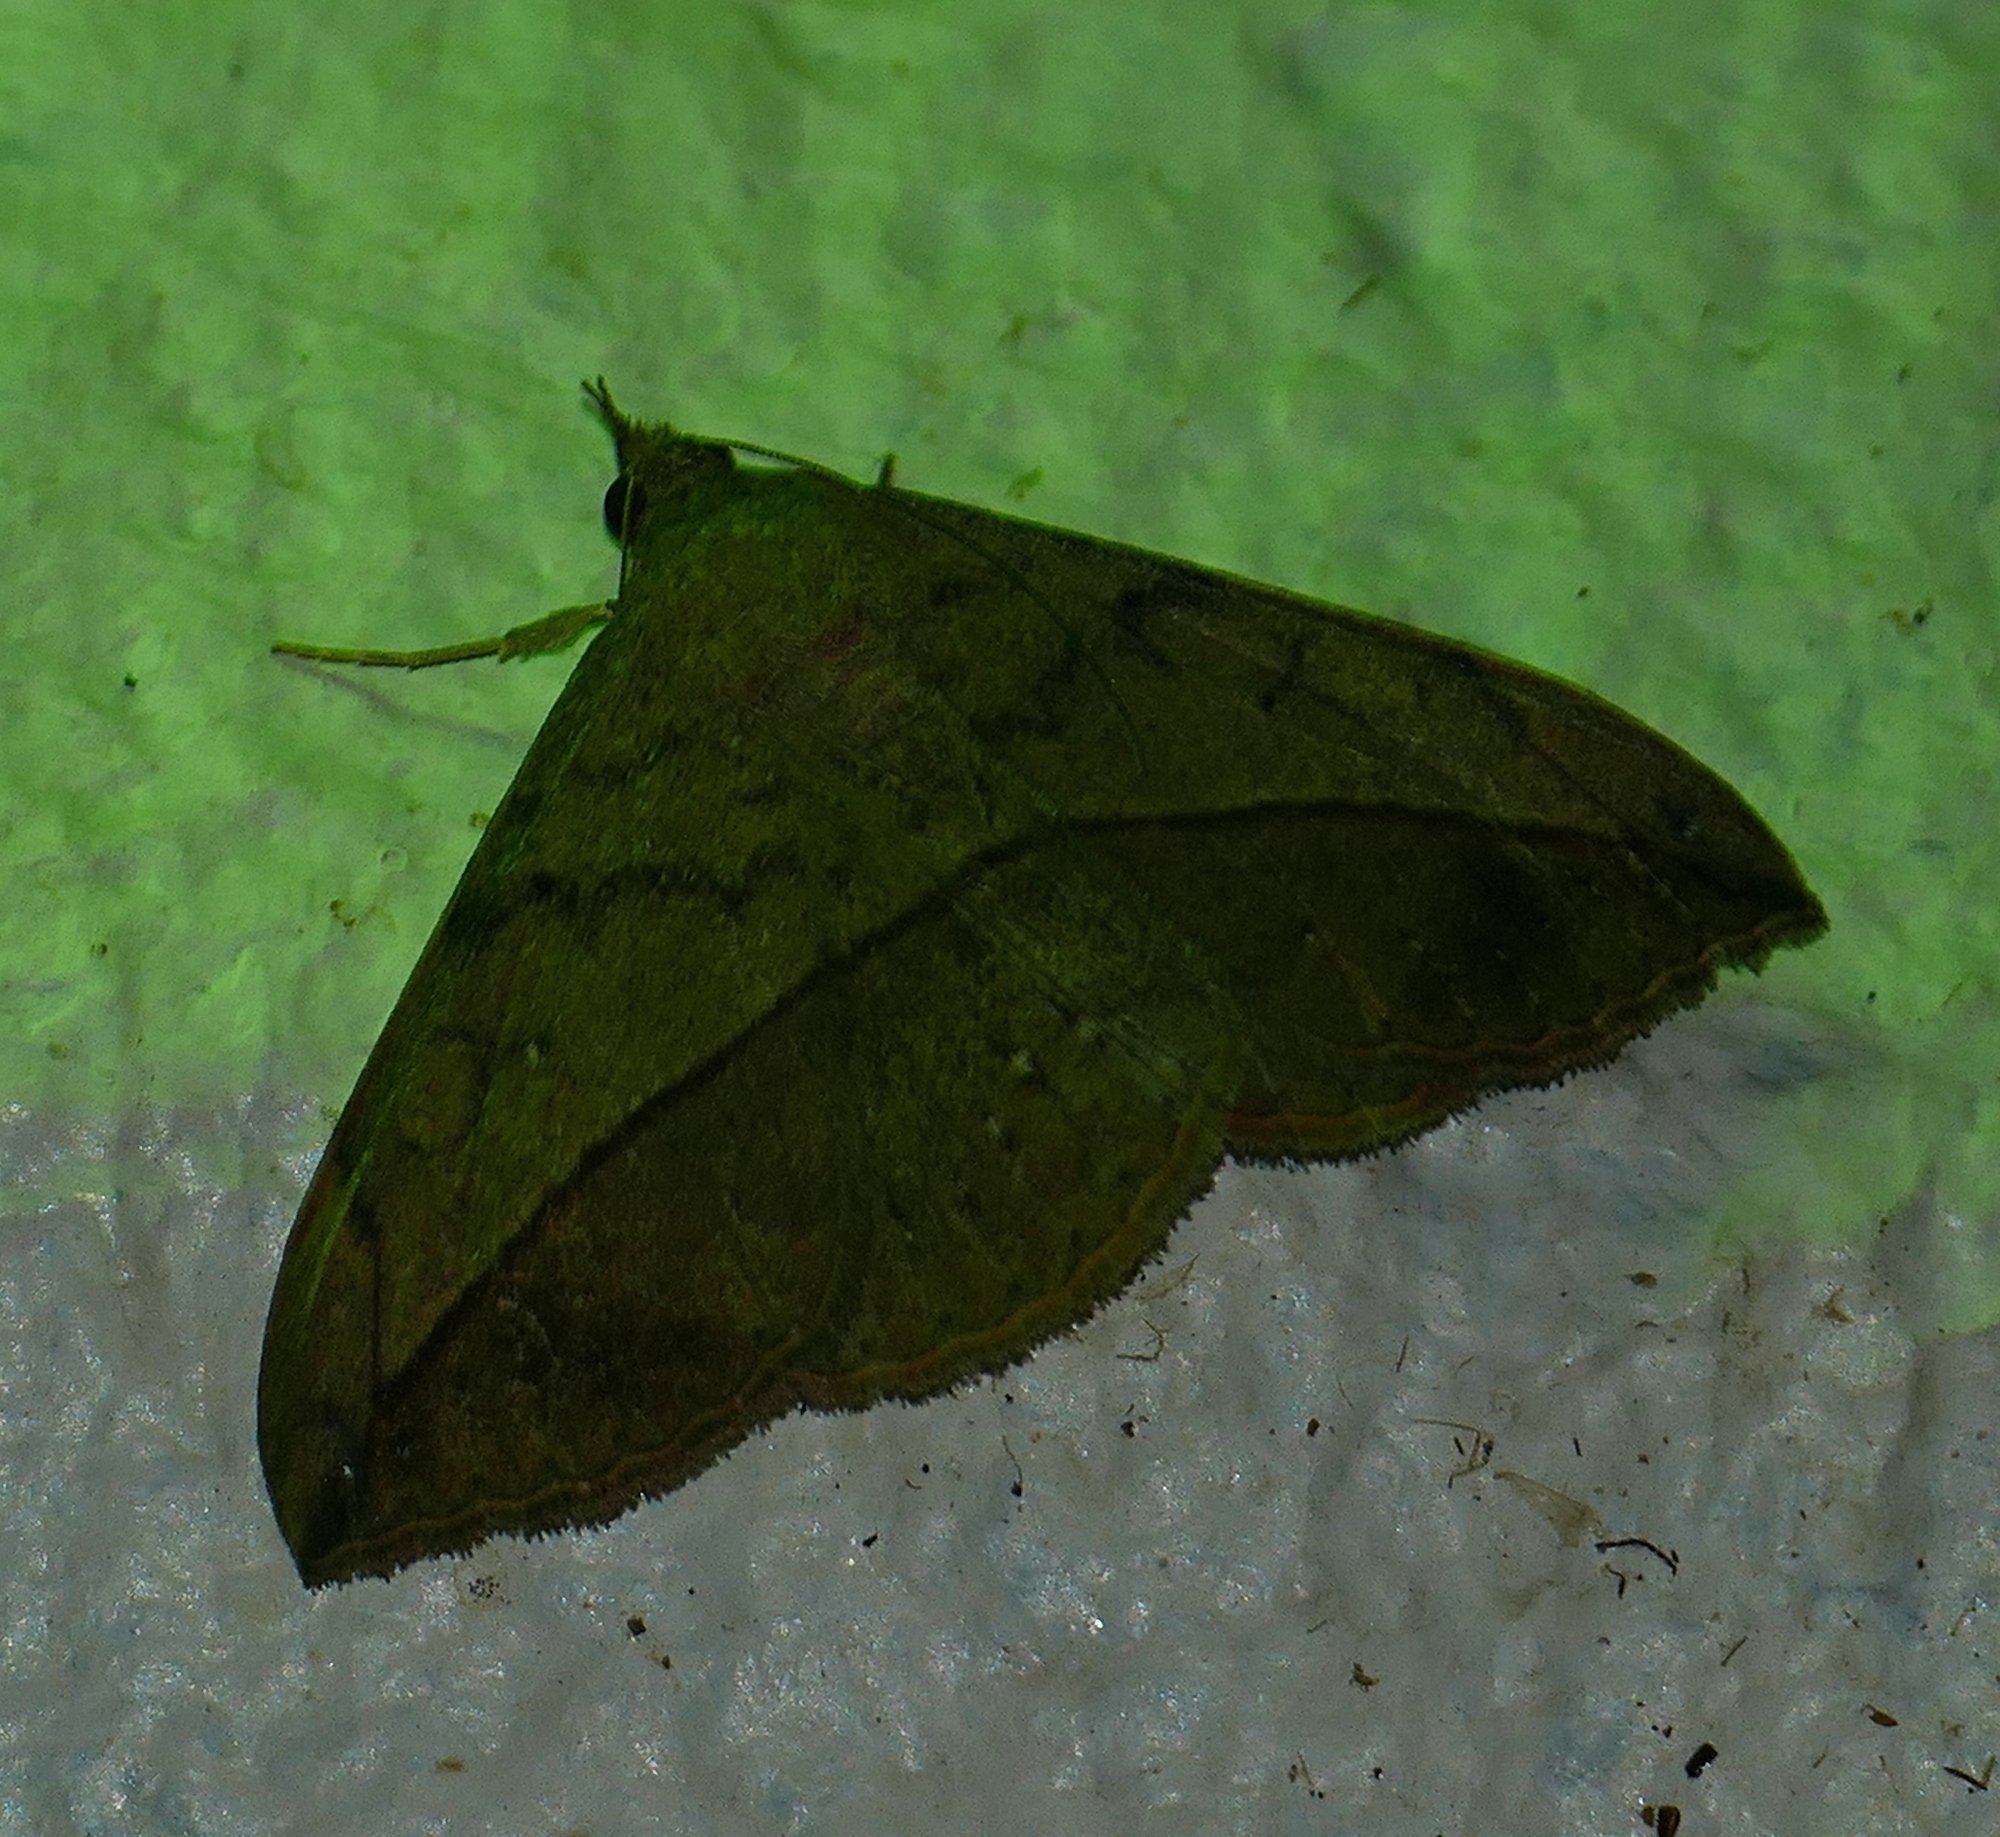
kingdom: Animalia
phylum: Arthropoda
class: Insecta
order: Lepidoptera
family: Erebidae
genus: Anticarsia
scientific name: Anticarsia gemmatalis
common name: Cutworm moth
